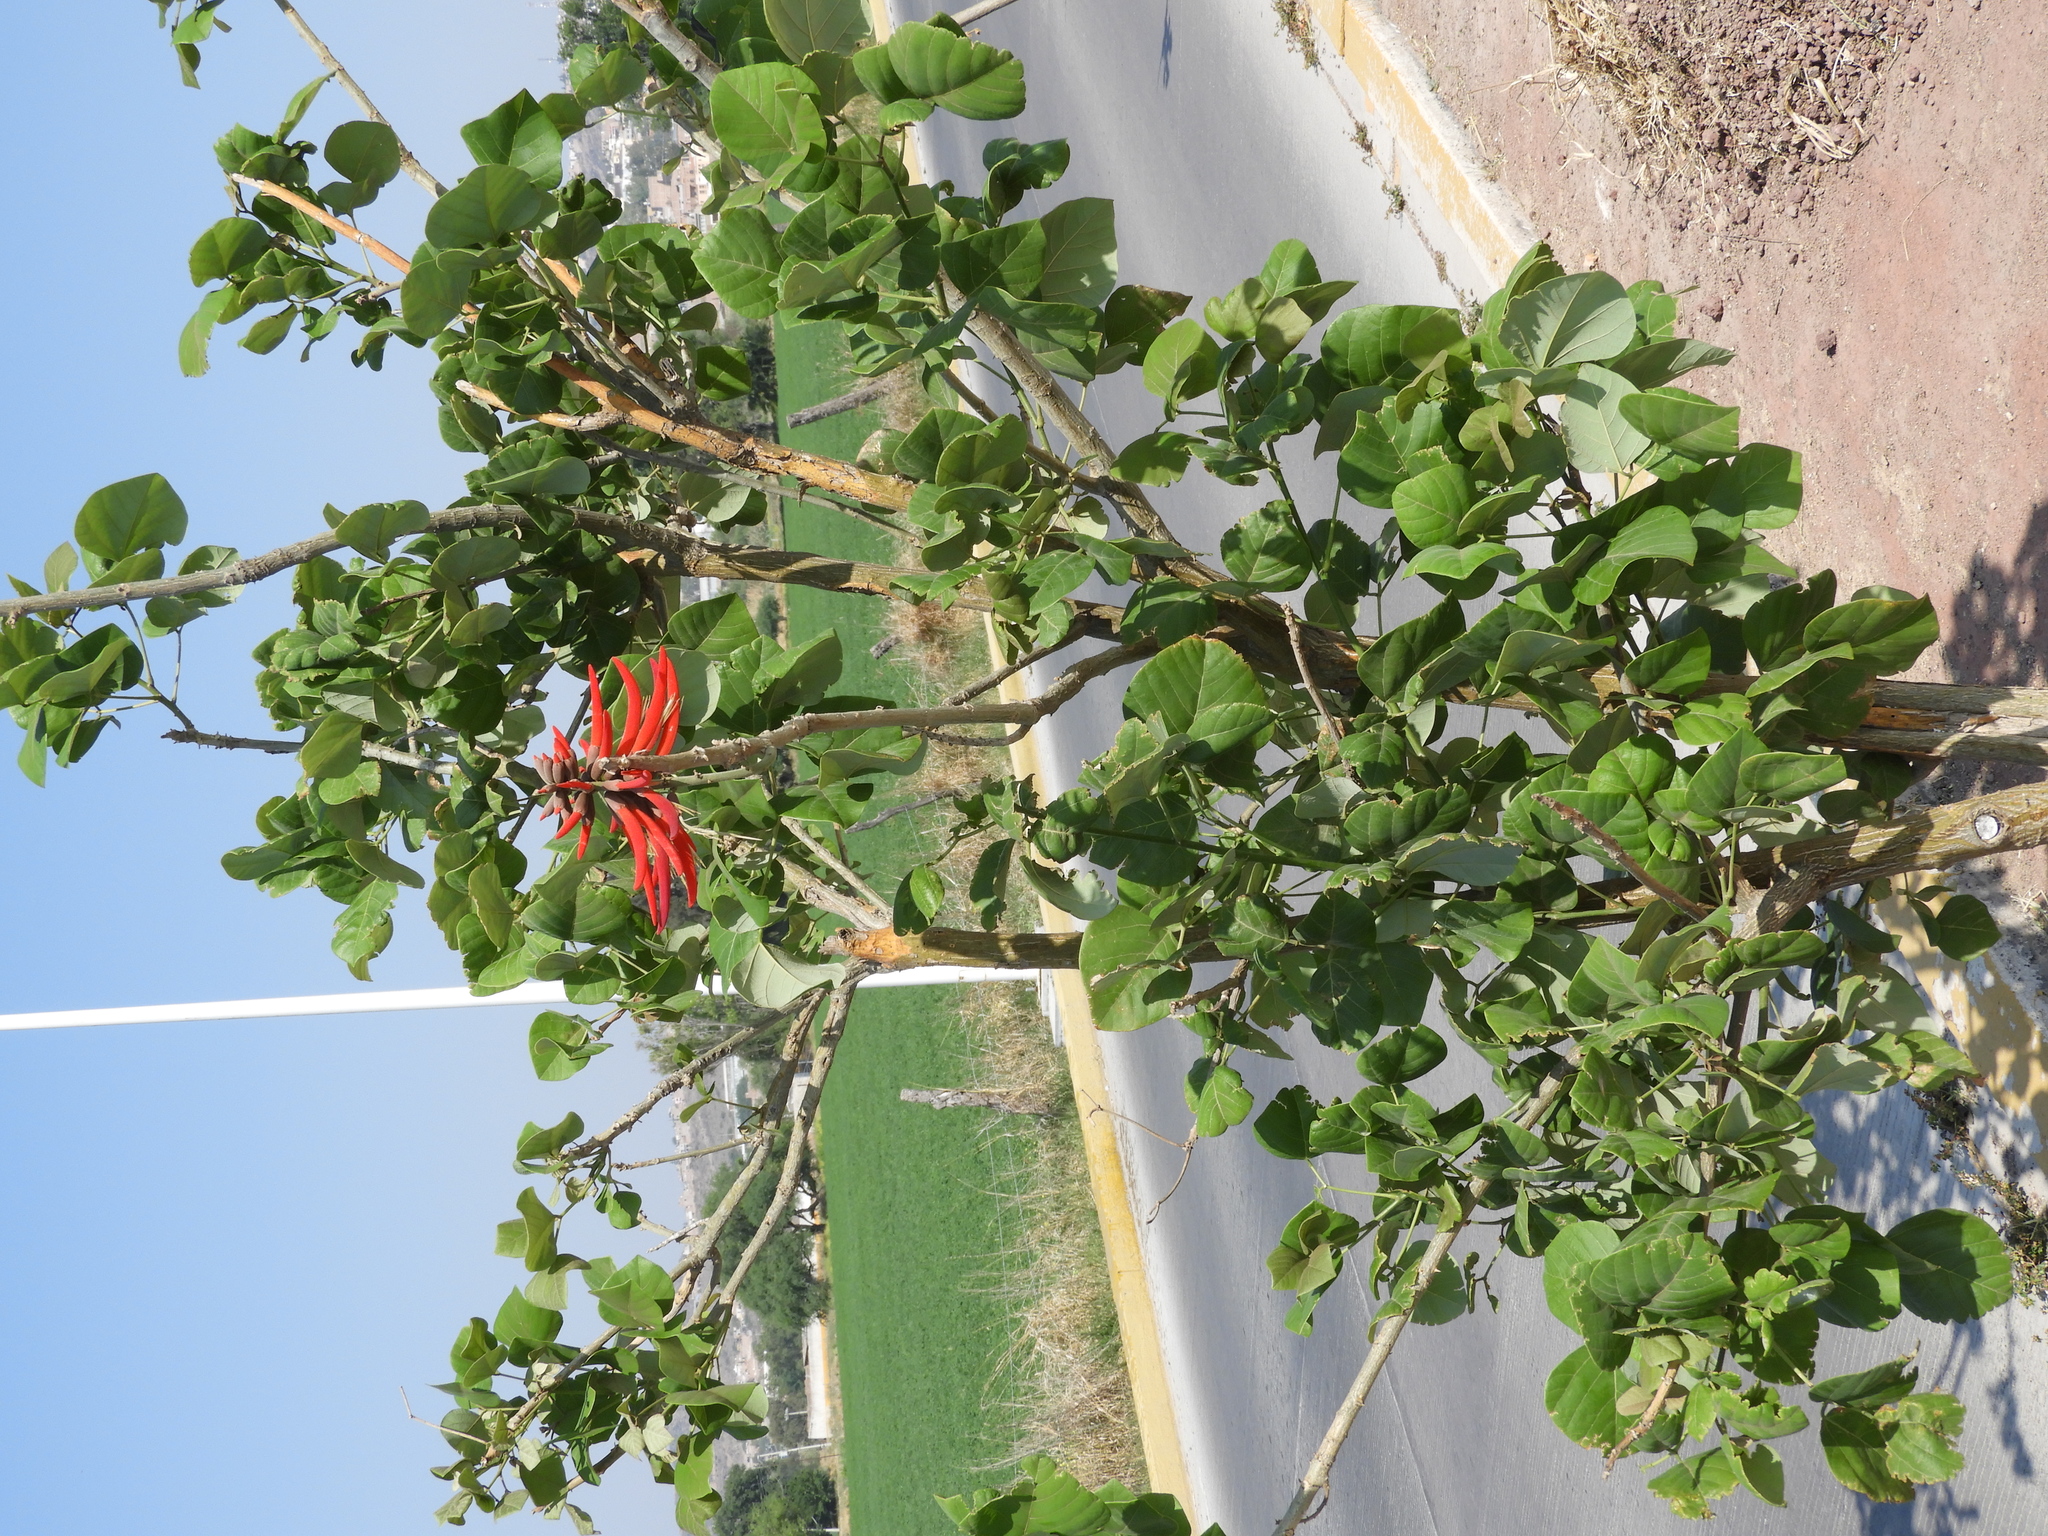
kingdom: Plantae
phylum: Tracheophyta
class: Magnoliopsida
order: Fabales
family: Fabaceae
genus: Erythrina
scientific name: Erythrina americana
